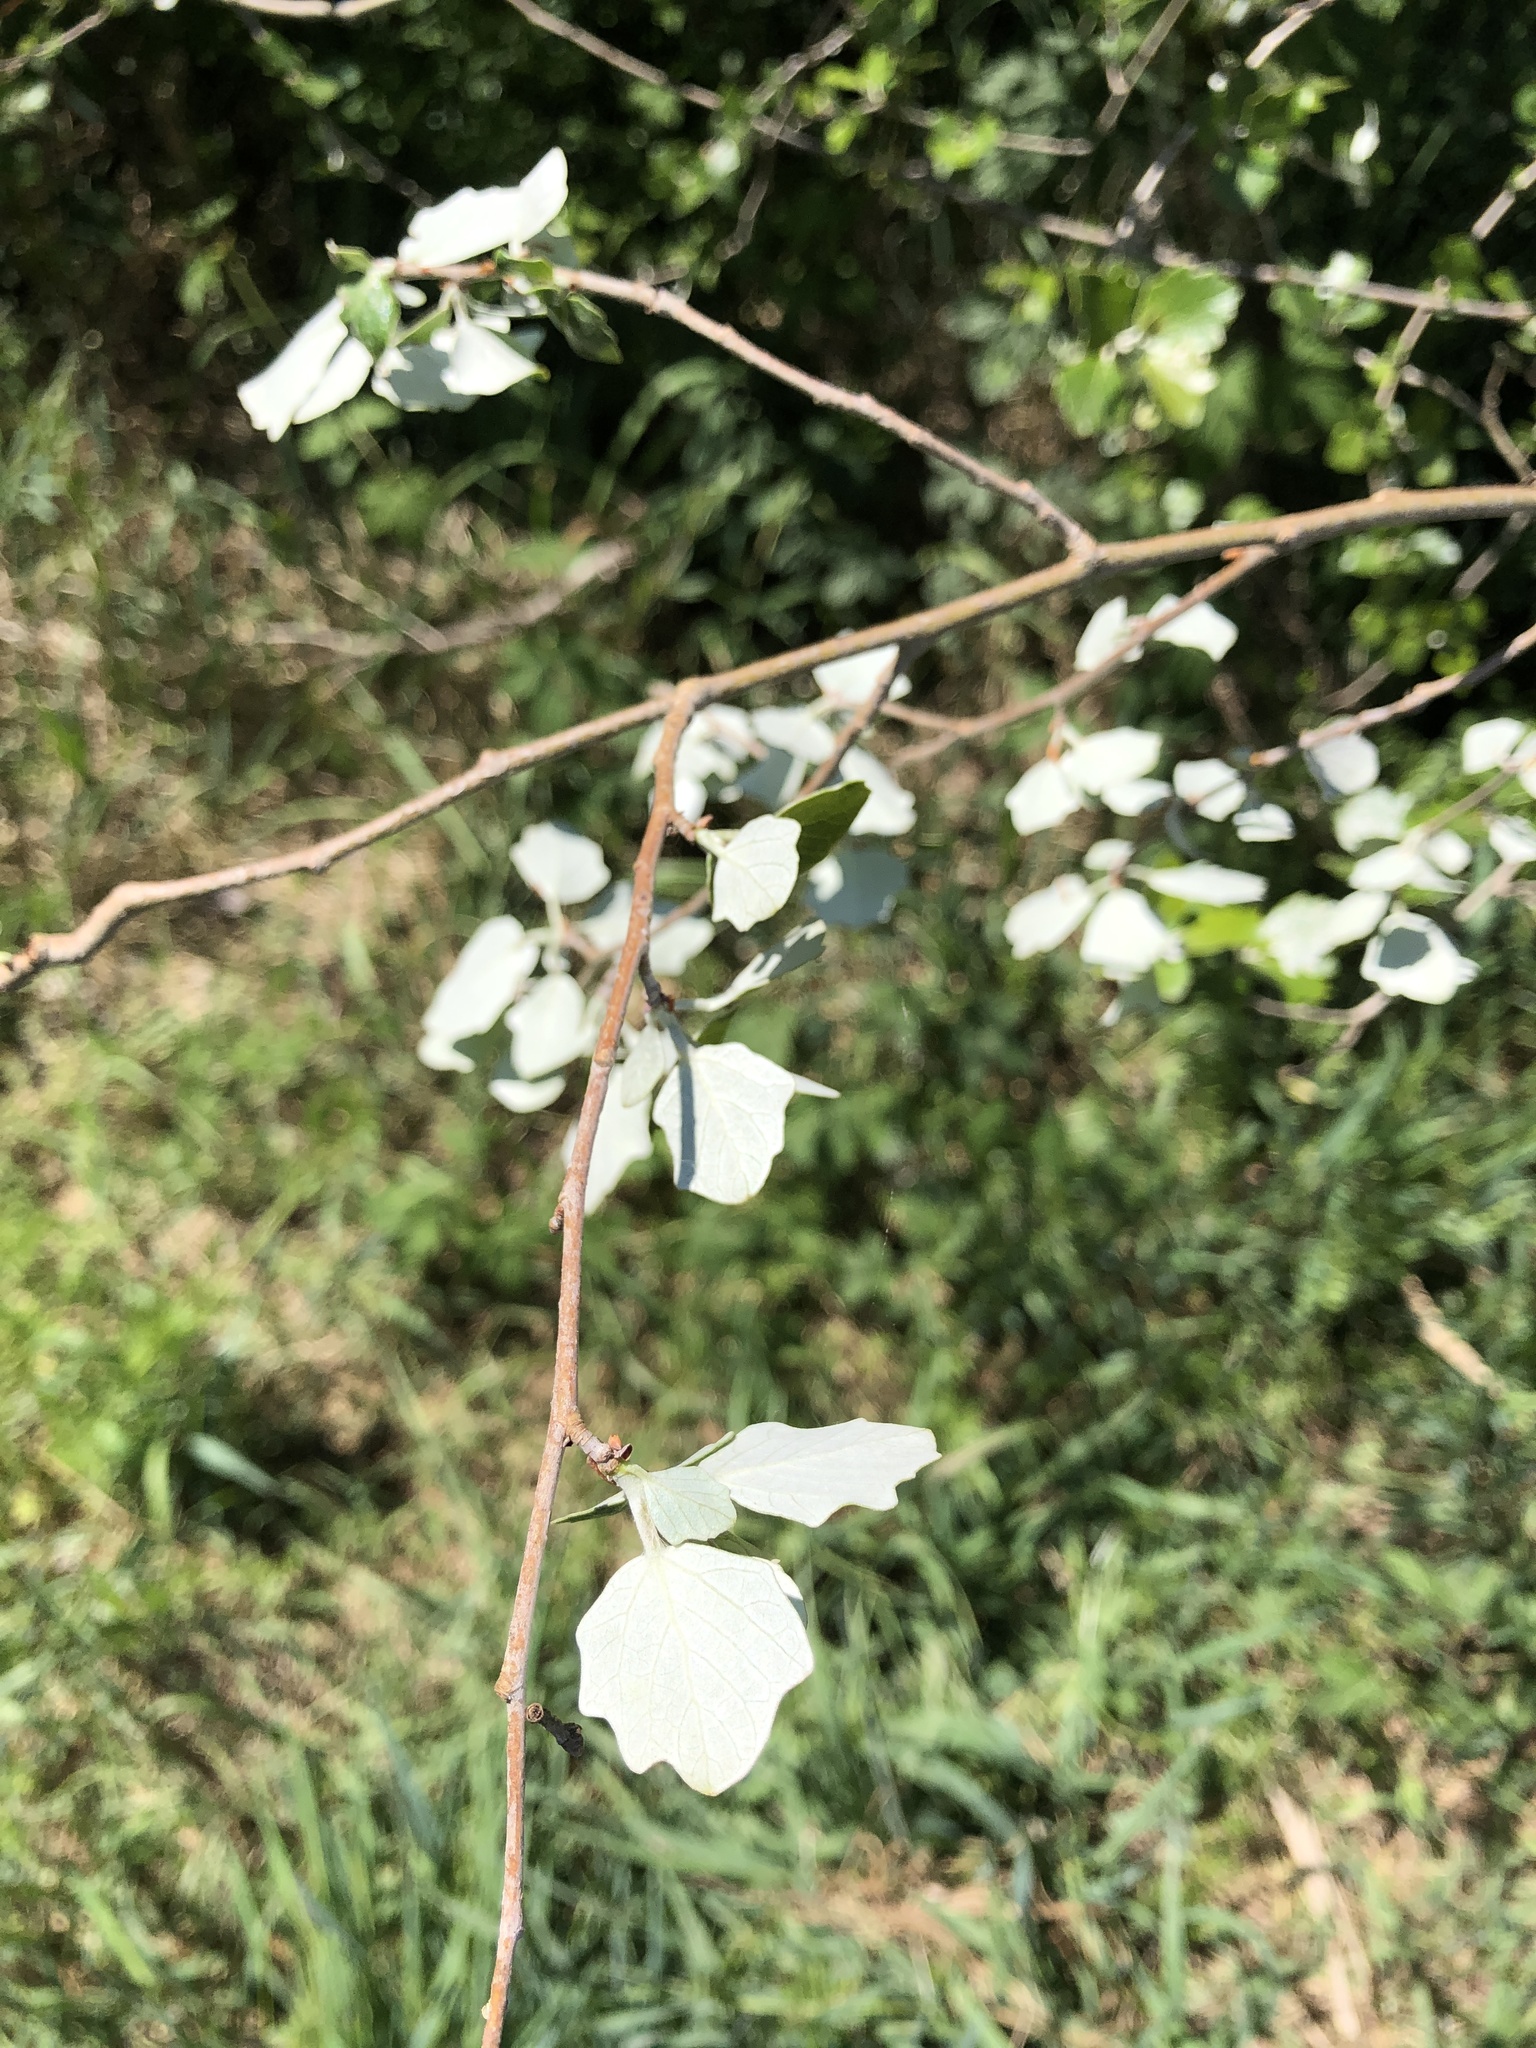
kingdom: Plantae
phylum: Tracheophyta
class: Magnoliopsida
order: Malpighiales
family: Salicaceae
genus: Populus
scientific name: Populus alba
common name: White poplar
